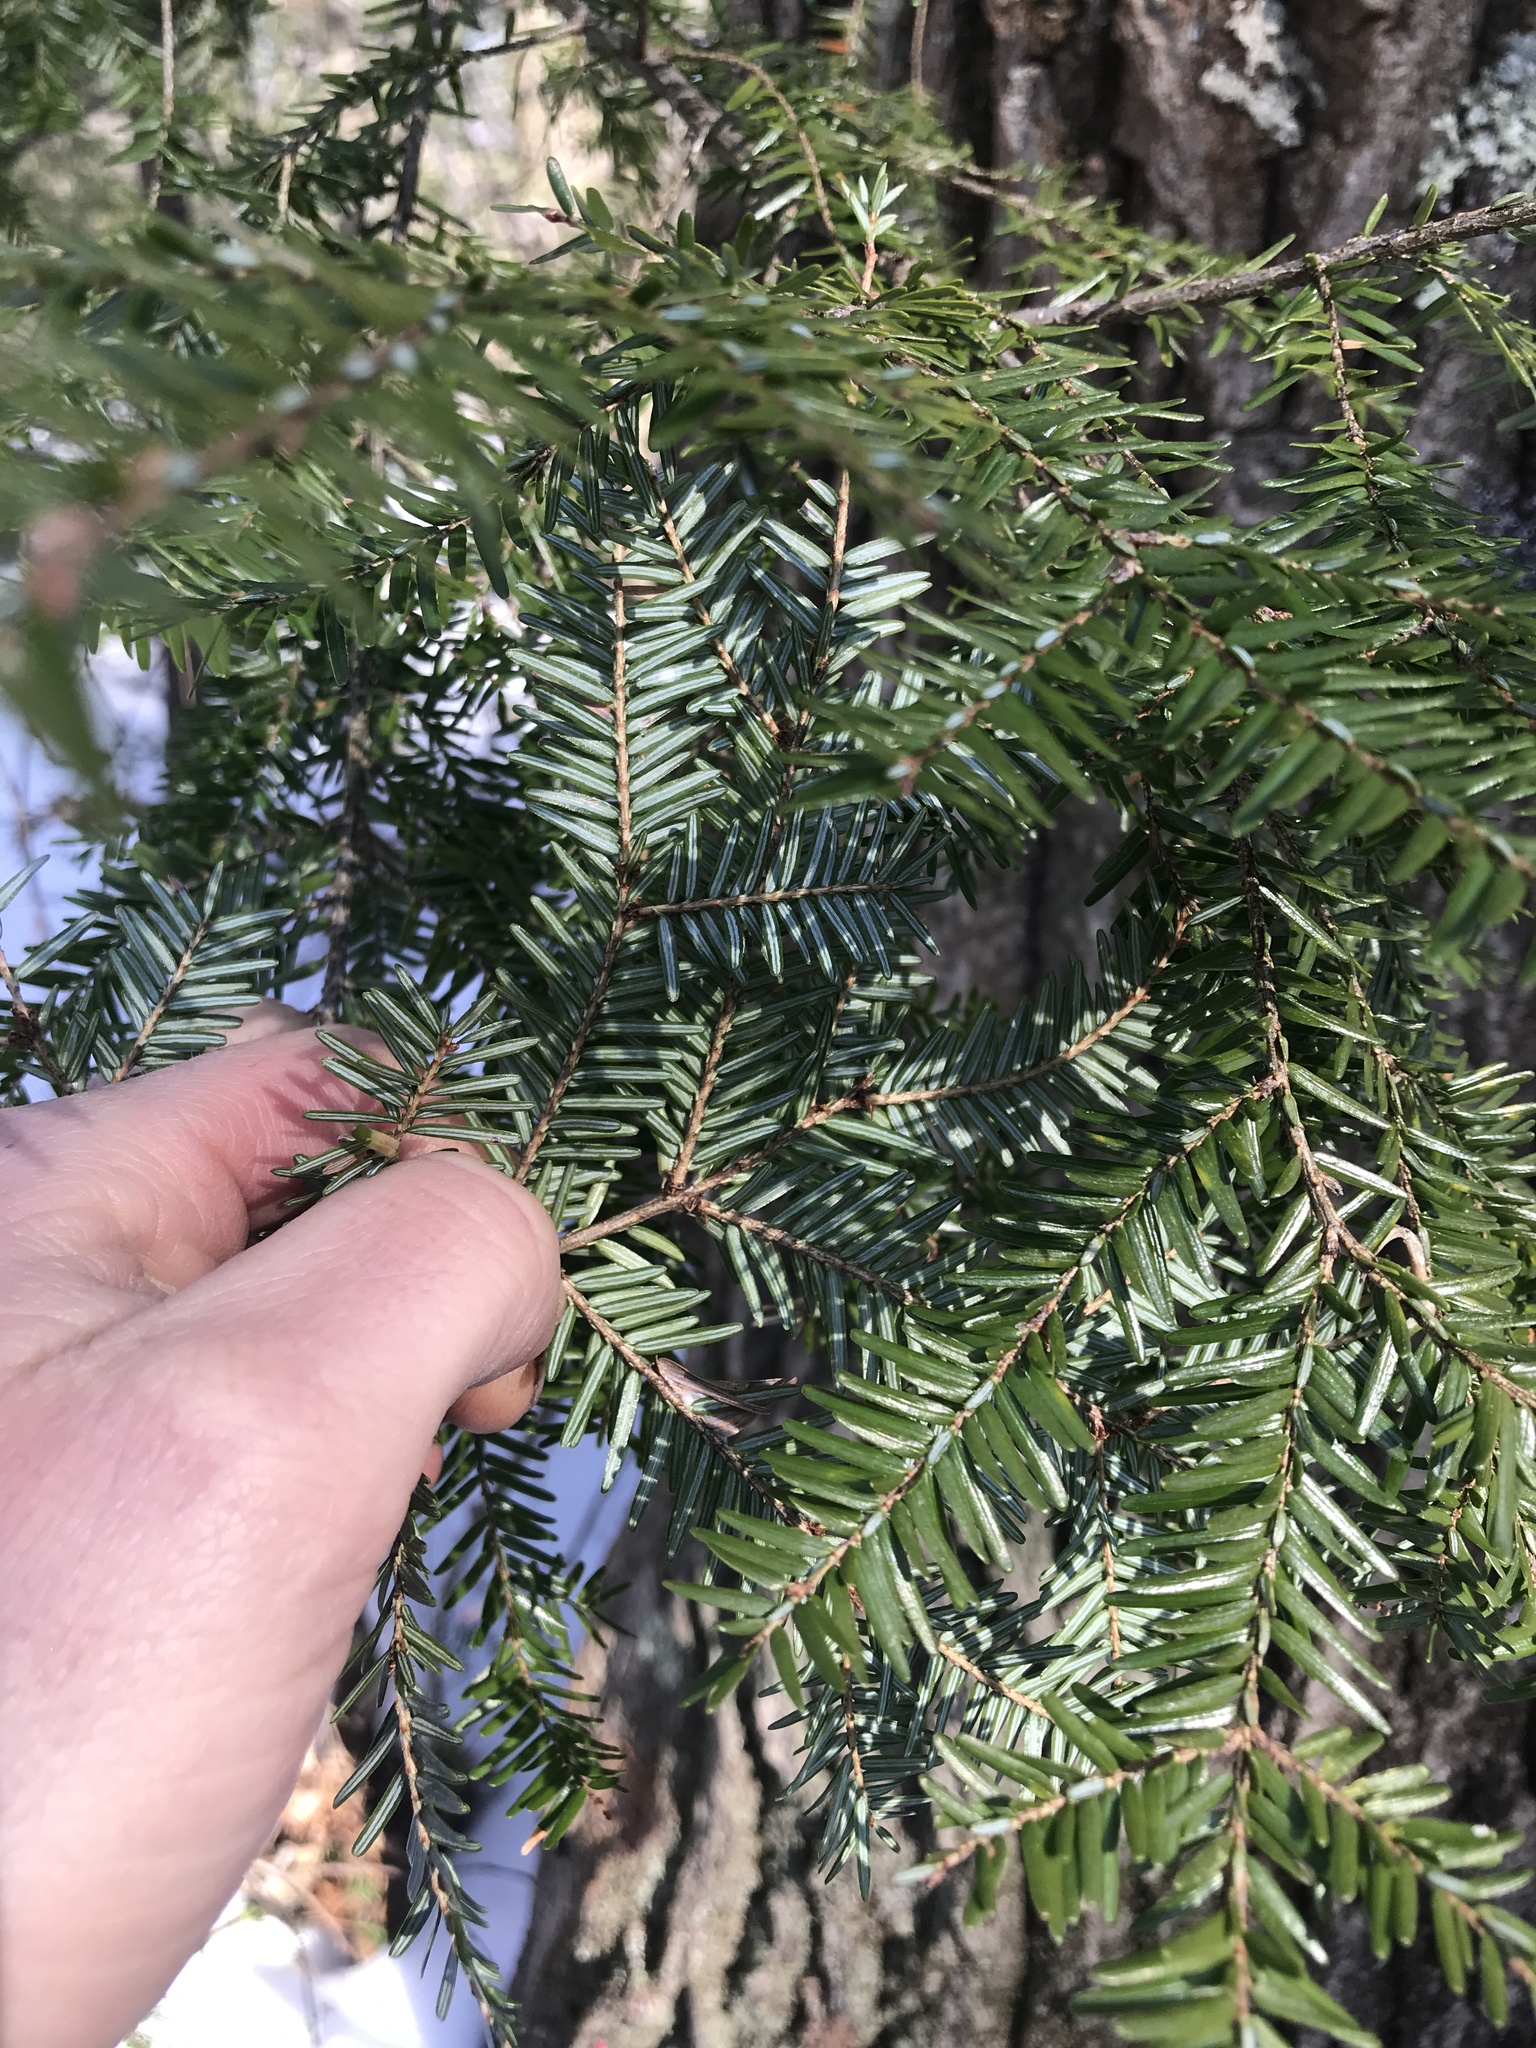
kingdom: Plantae
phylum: Tracheophyta
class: Pinopsida
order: Pinales
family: Pinaceae
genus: Tsuga
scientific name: Tsuga canadensis
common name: Eastern hemlock
